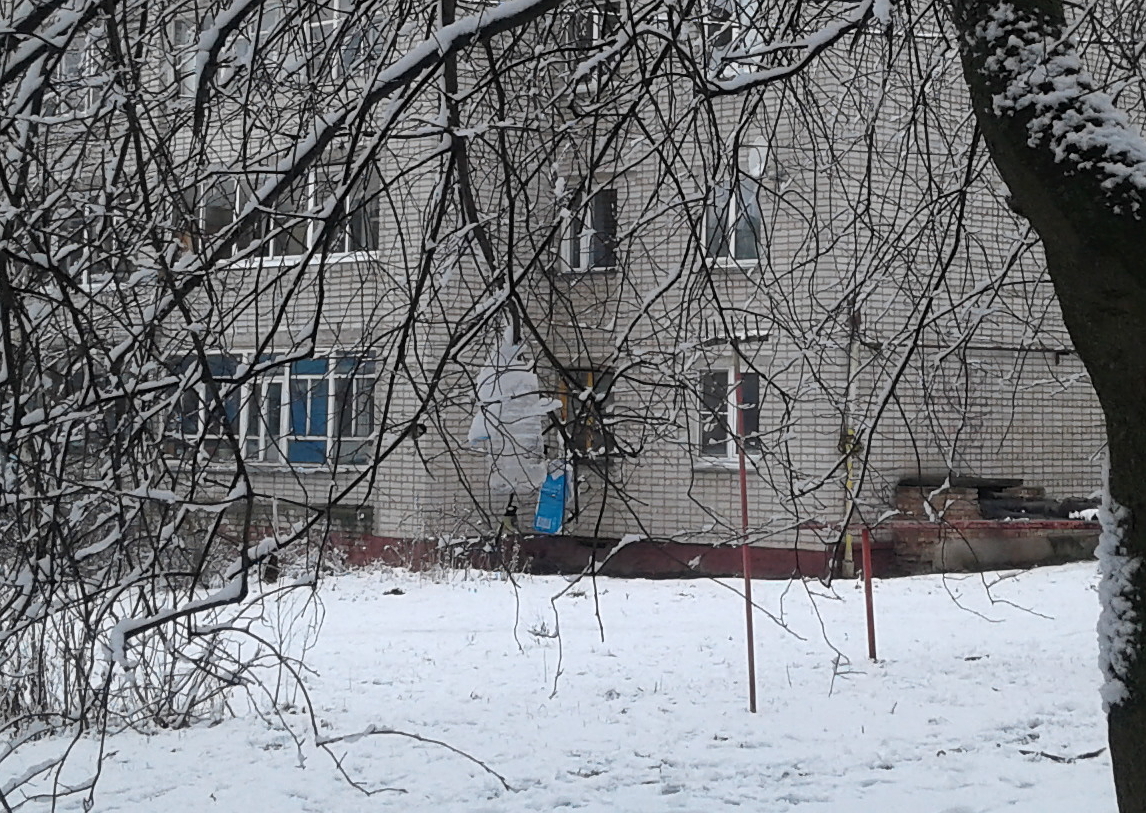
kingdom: Animalia
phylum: Chordata
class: Aves
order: Passeriformes
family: Paridae
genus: Parus
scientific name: Parus major
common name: Great tit
